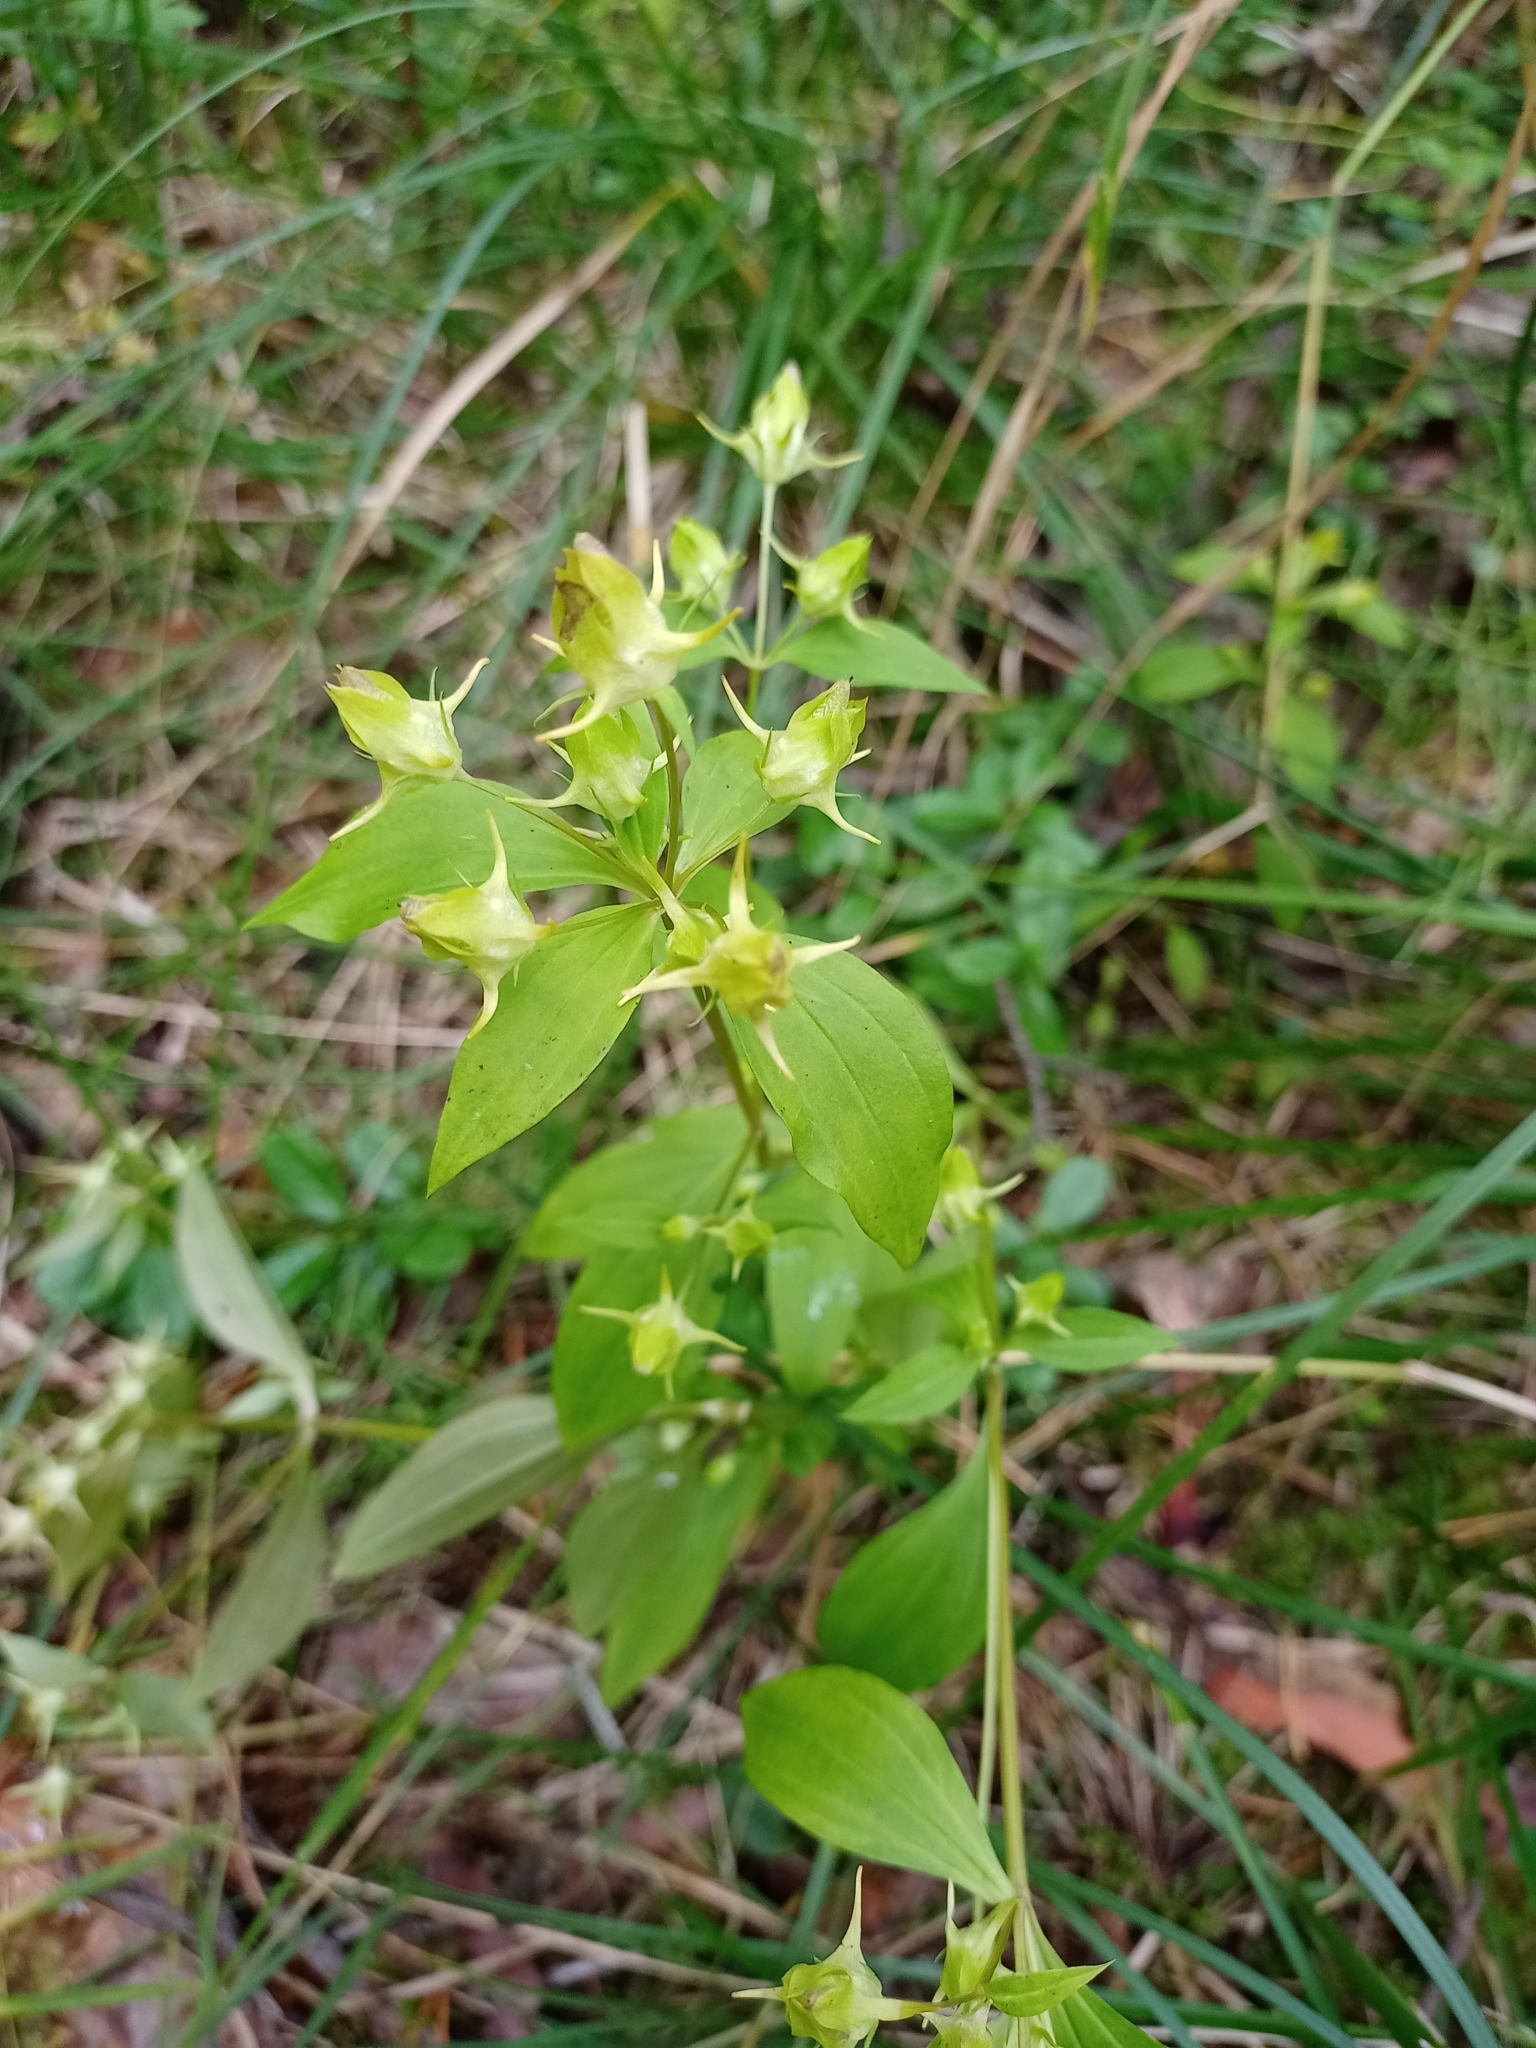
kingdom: Plantae
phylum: Tracheophyta
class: Magnoliopsida
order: Gentianales
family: Gentianaceae
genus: Halenia
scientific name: Halenia corniculata
